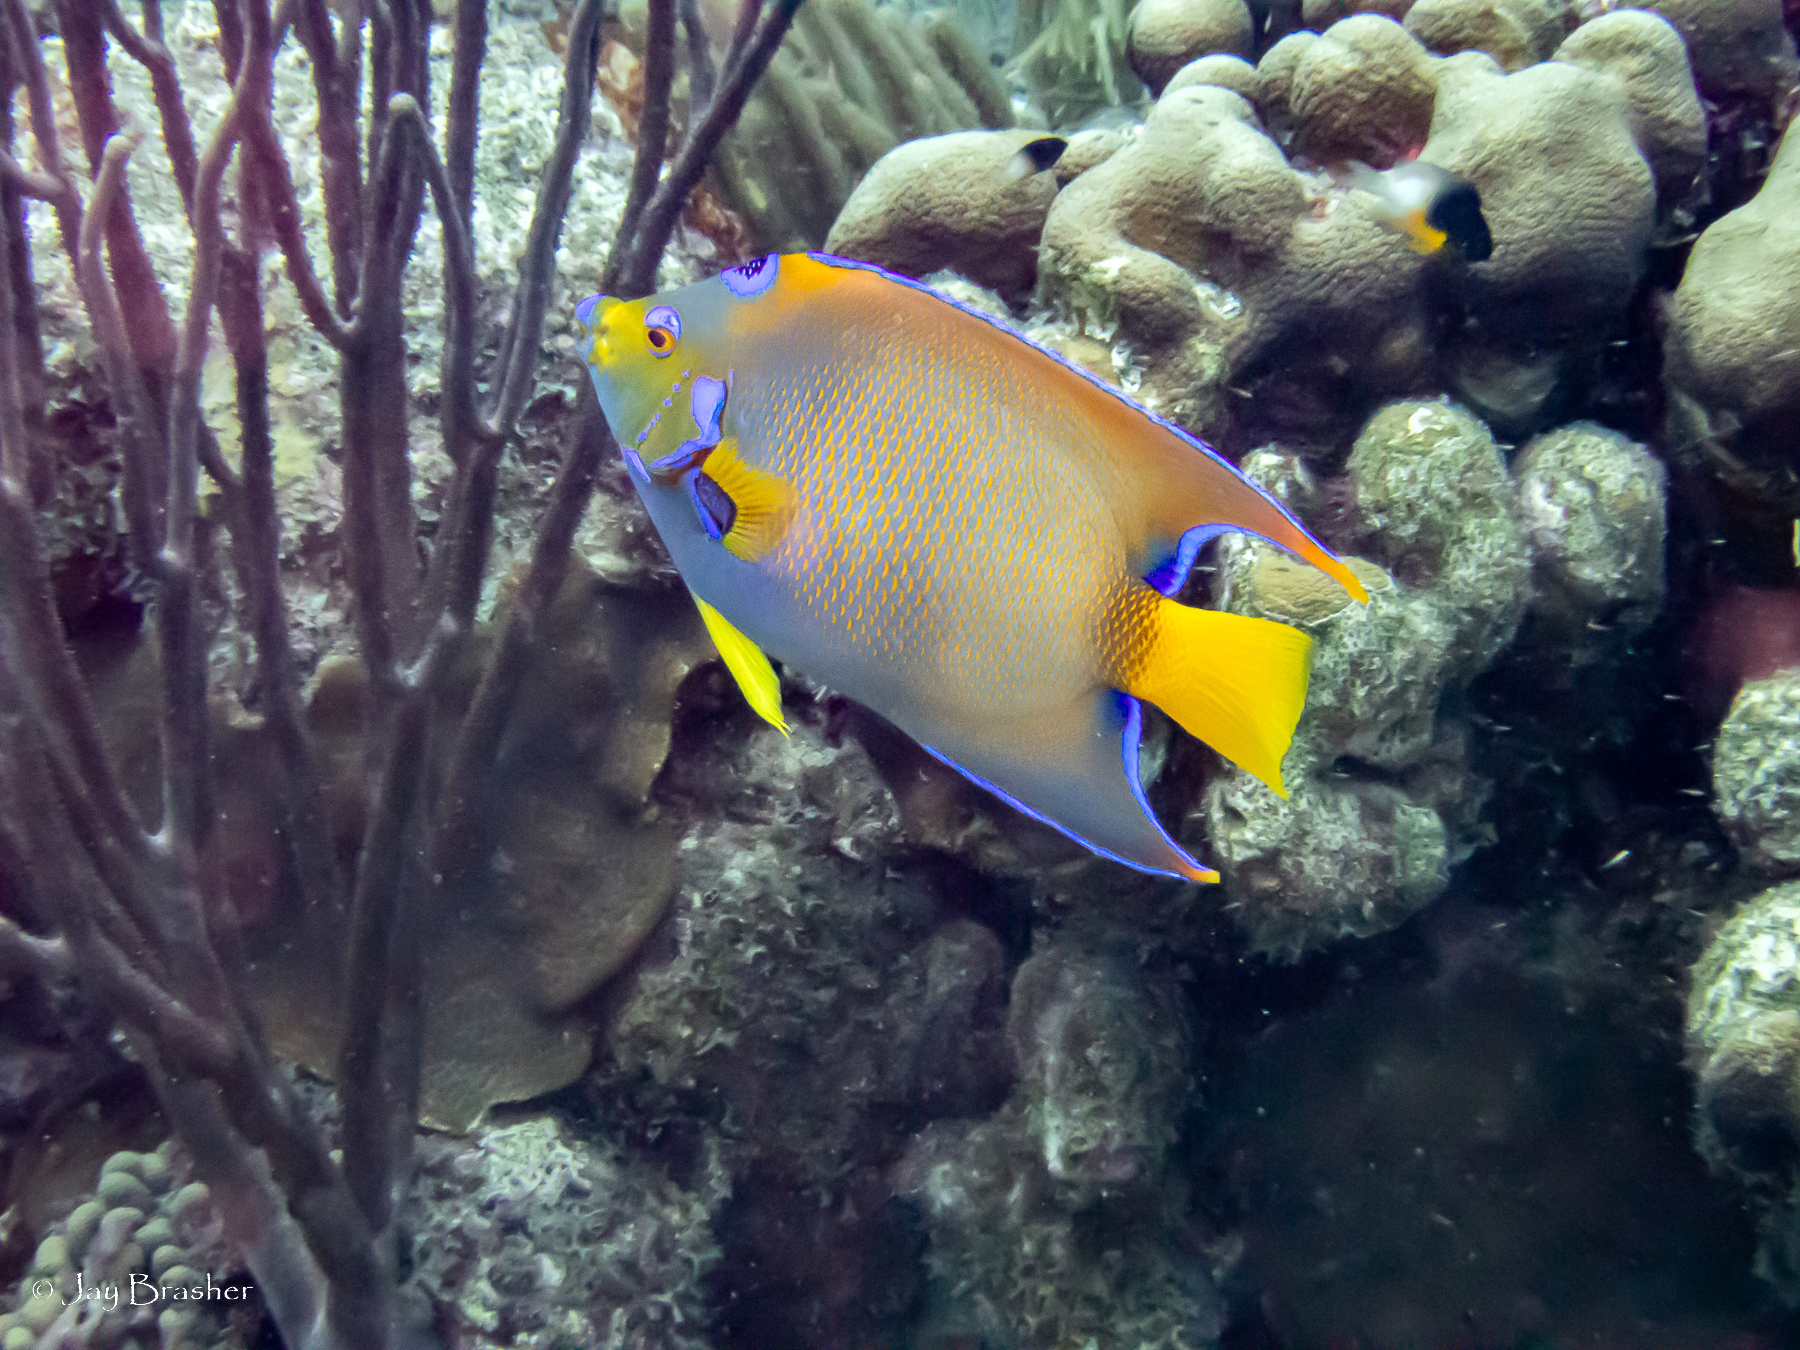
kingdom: Animalia
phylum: Chordata
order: Perciformes
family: Pomacentridae
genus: Stegastes
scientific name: Stegastes partitus
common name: Bicolor damselfish
